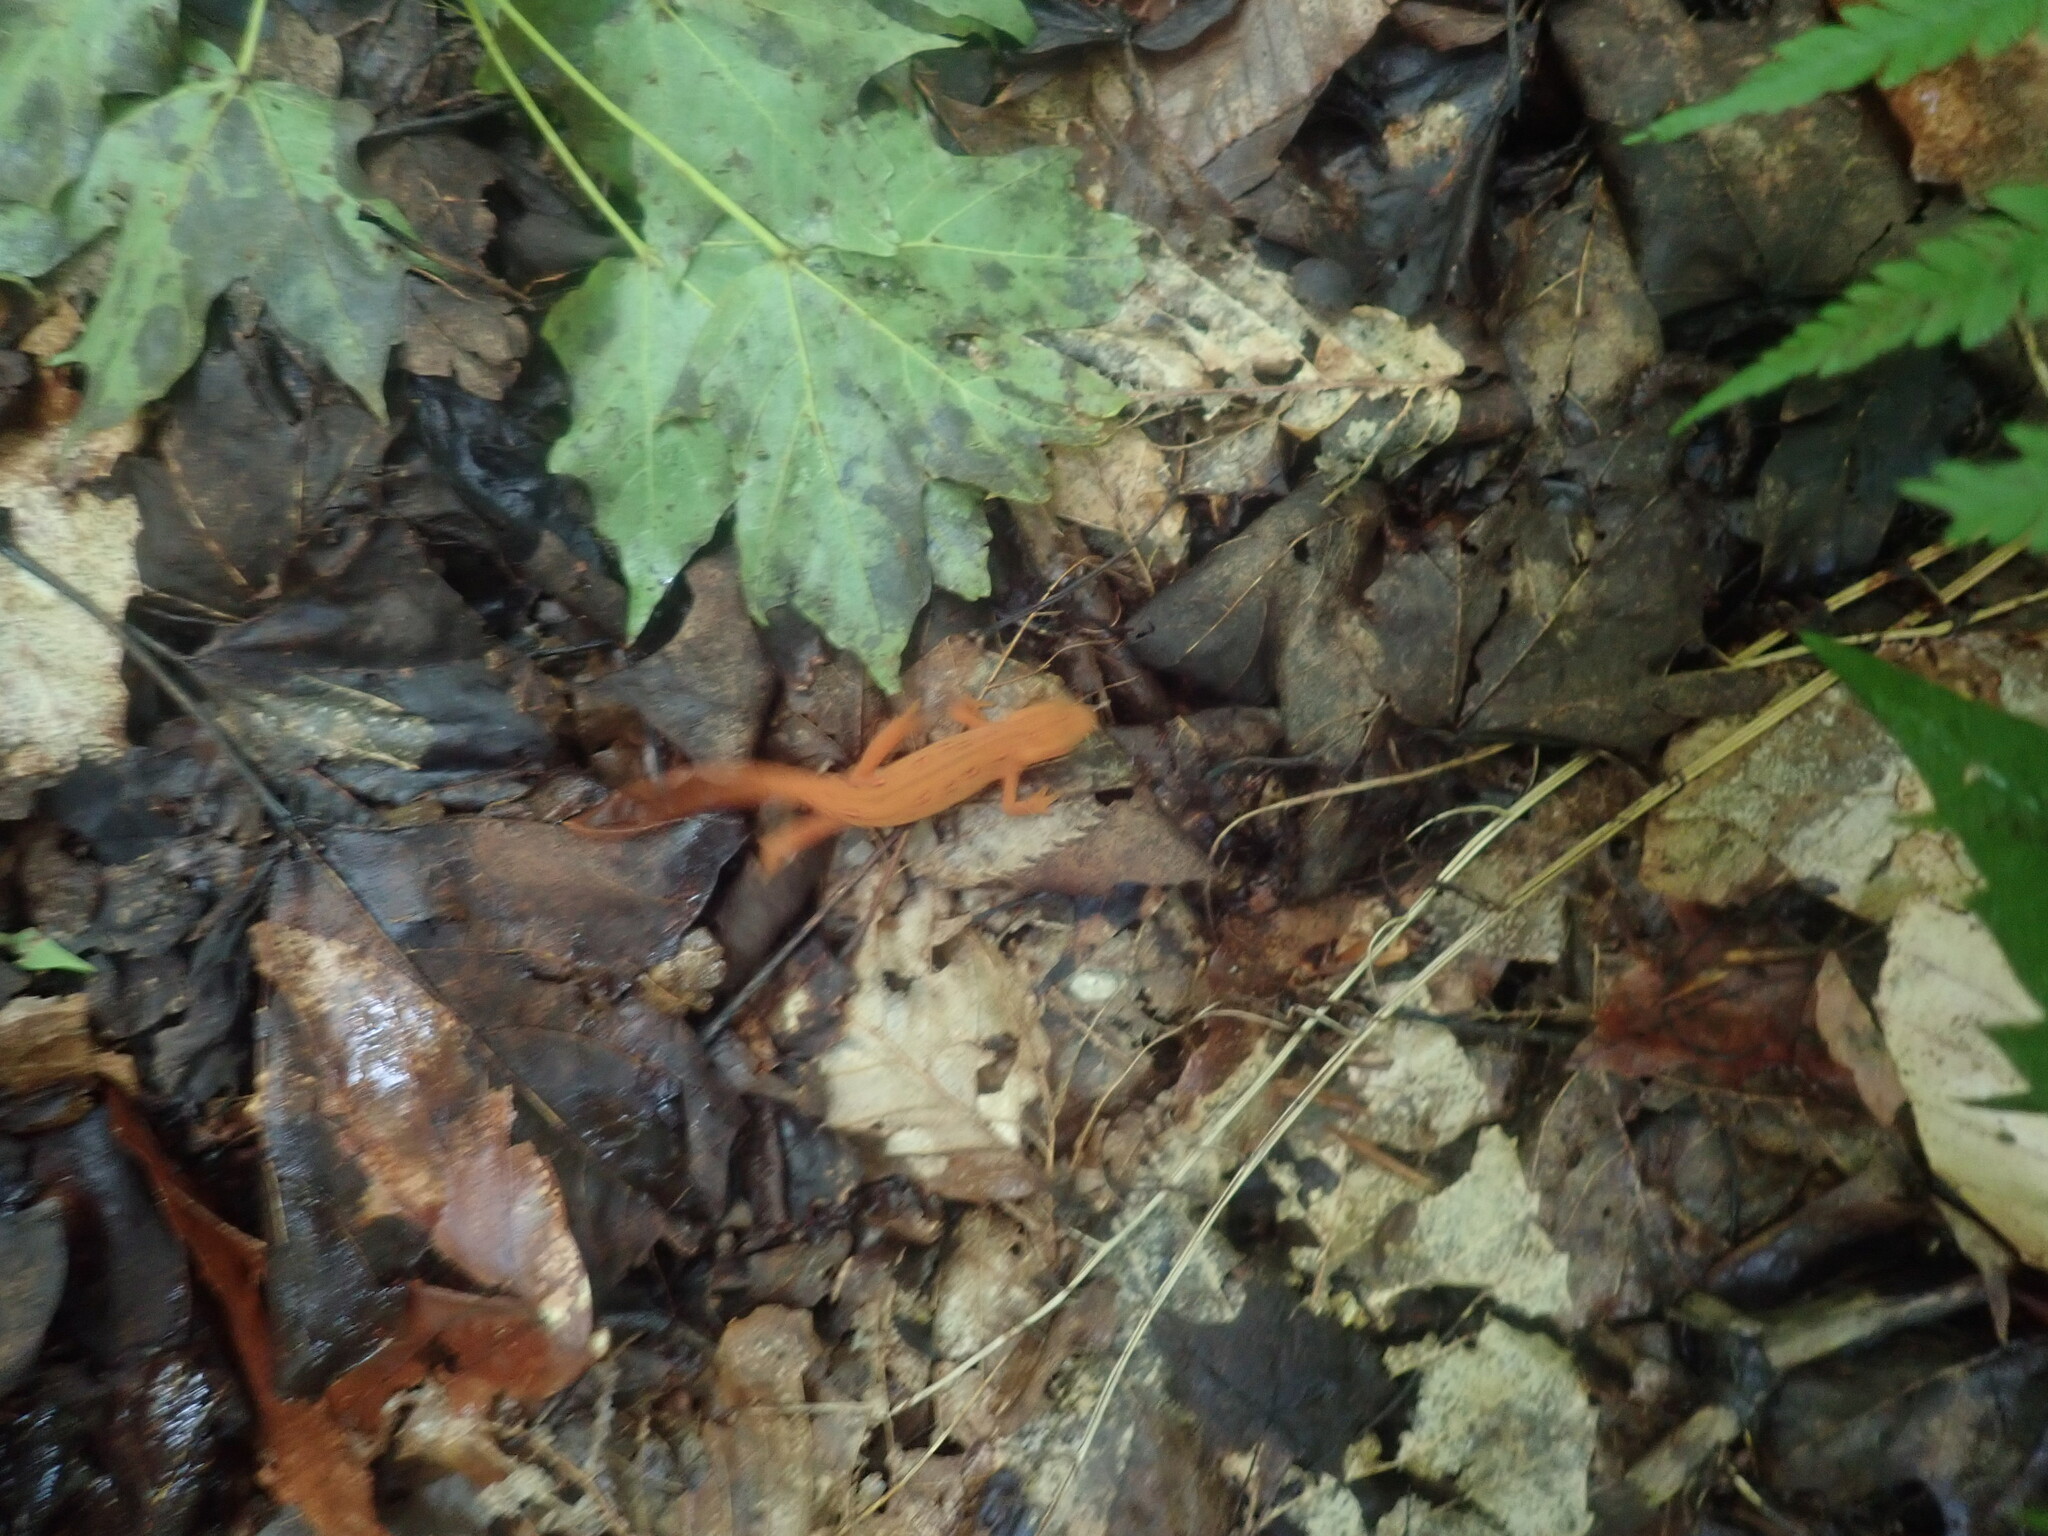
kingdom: Animalia
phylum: Chordata
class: Amphibia
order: Caudata
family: Salamandridae
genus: Notophthalmus
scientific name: Notophthalmus viridescens
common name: Eastern newt
